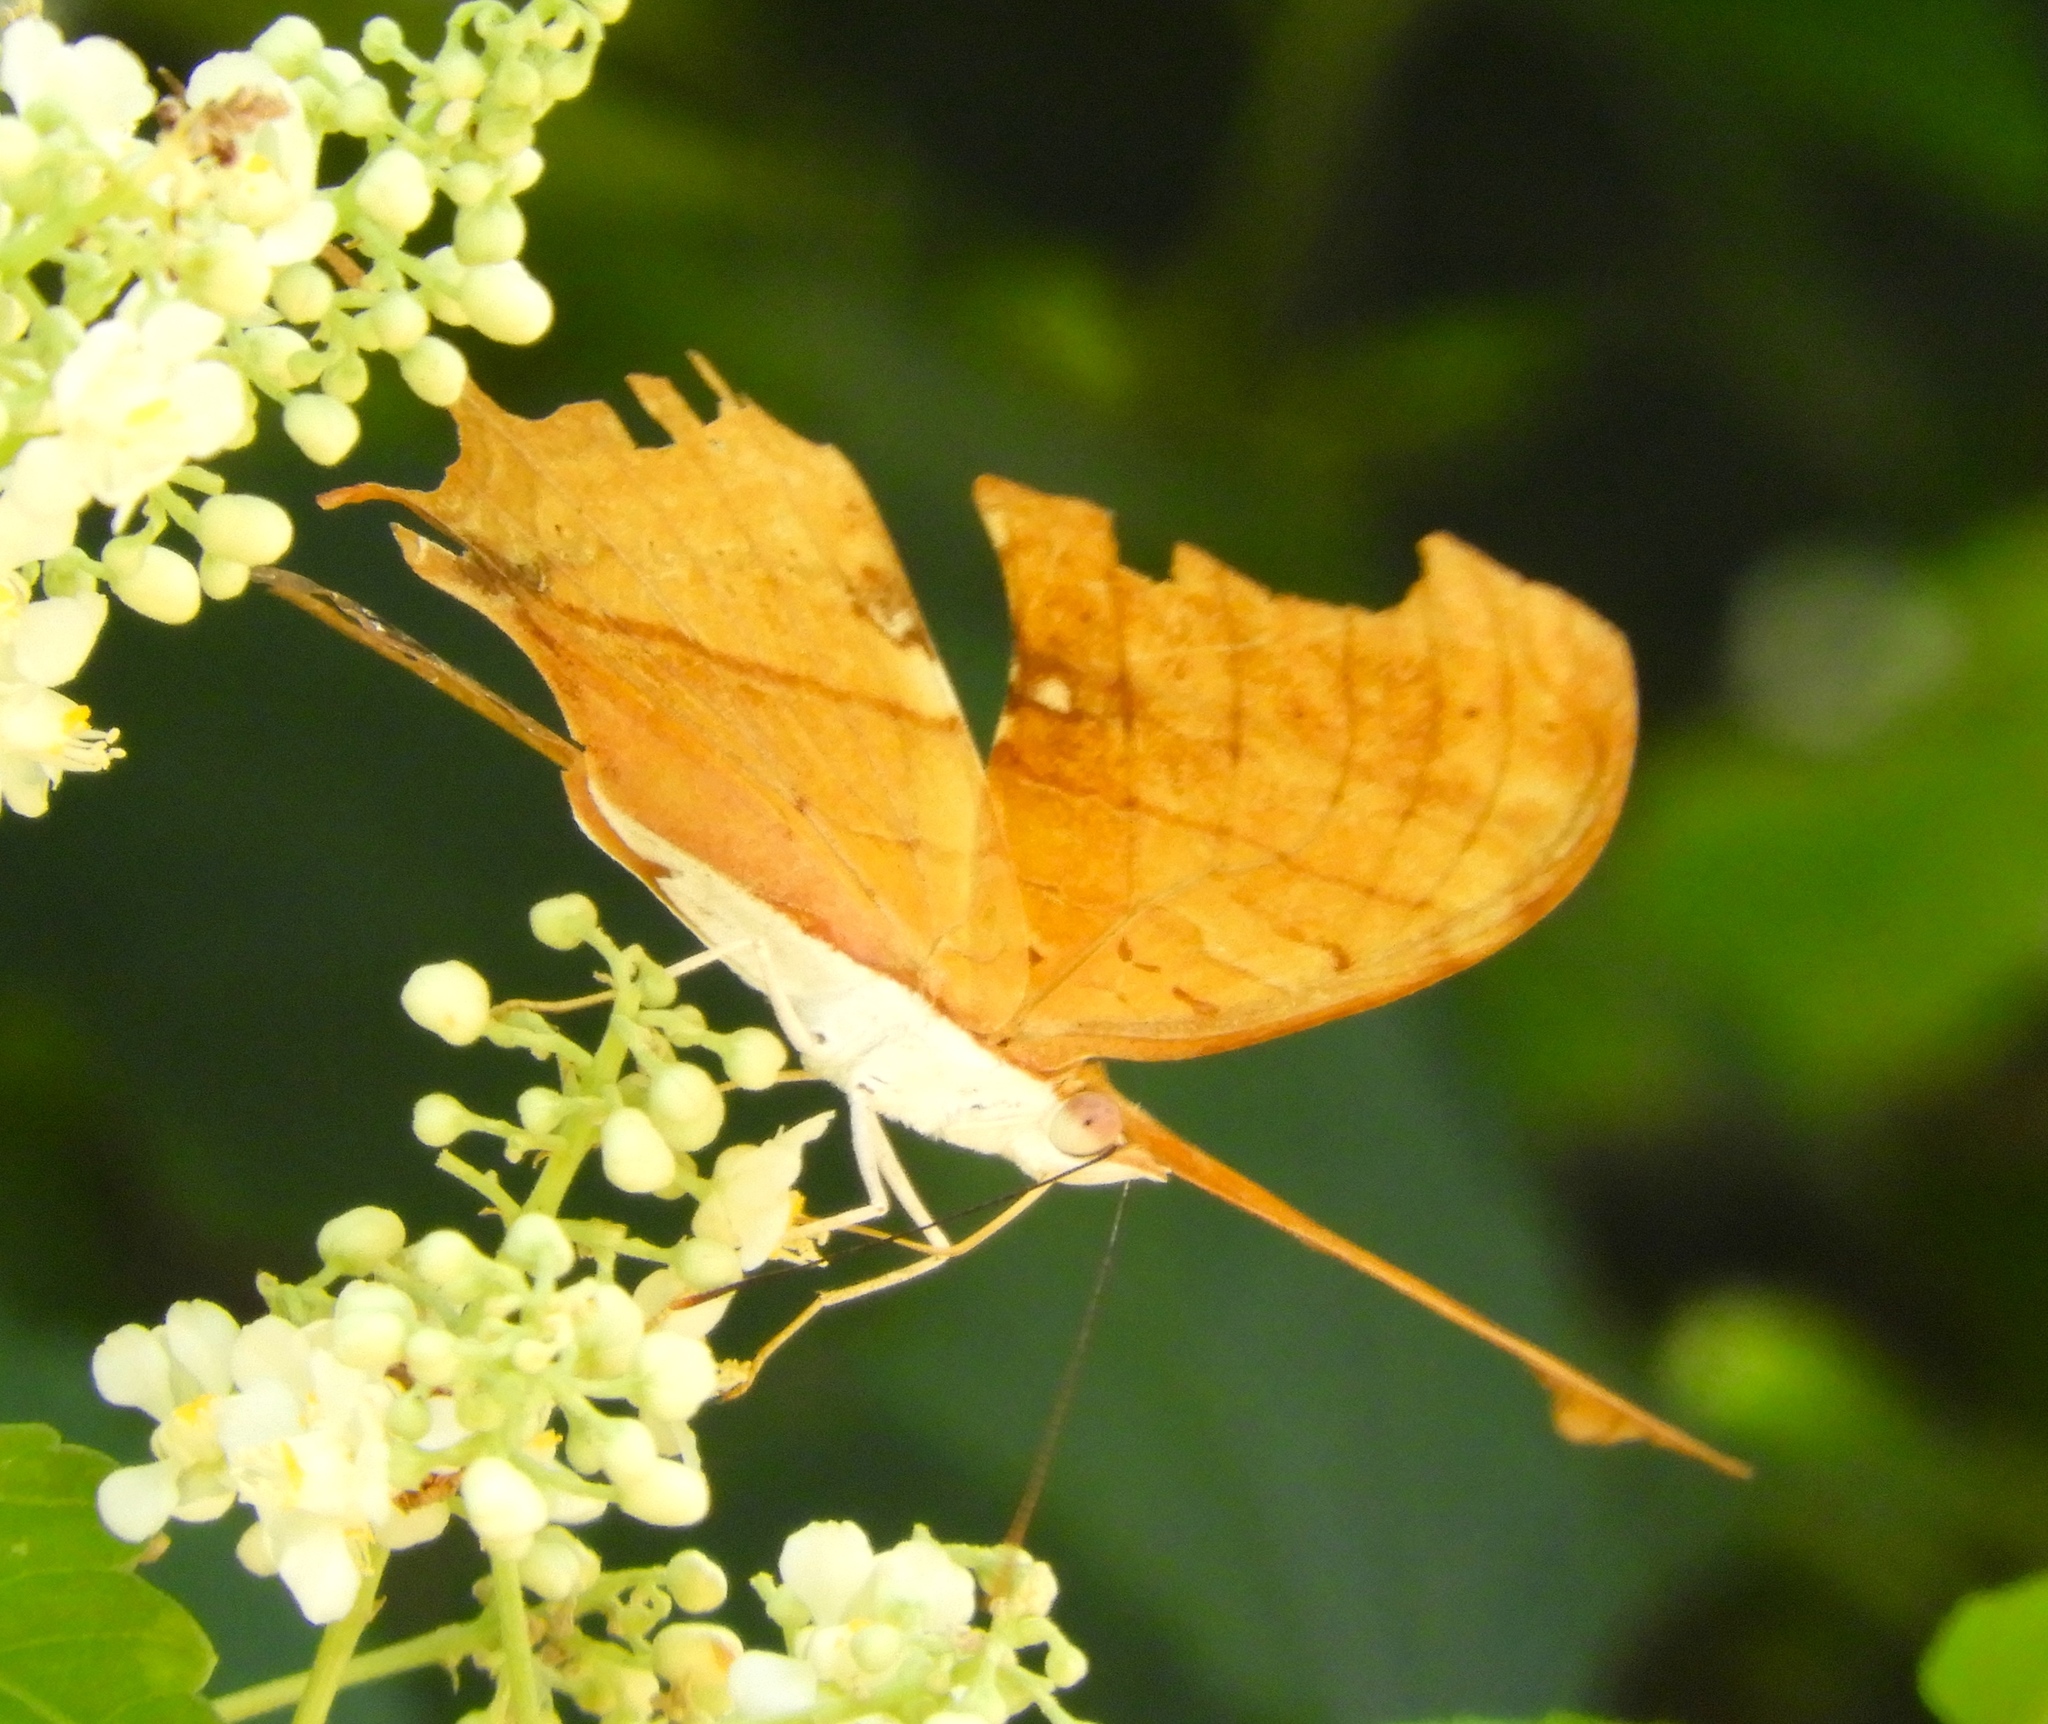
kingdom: Animalia
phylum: Arthropoda
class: Insecta
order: Lepidoptera
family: Nymphalidae
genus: Marpesia
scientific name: Marpesia petreus
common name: Red dagger wing
